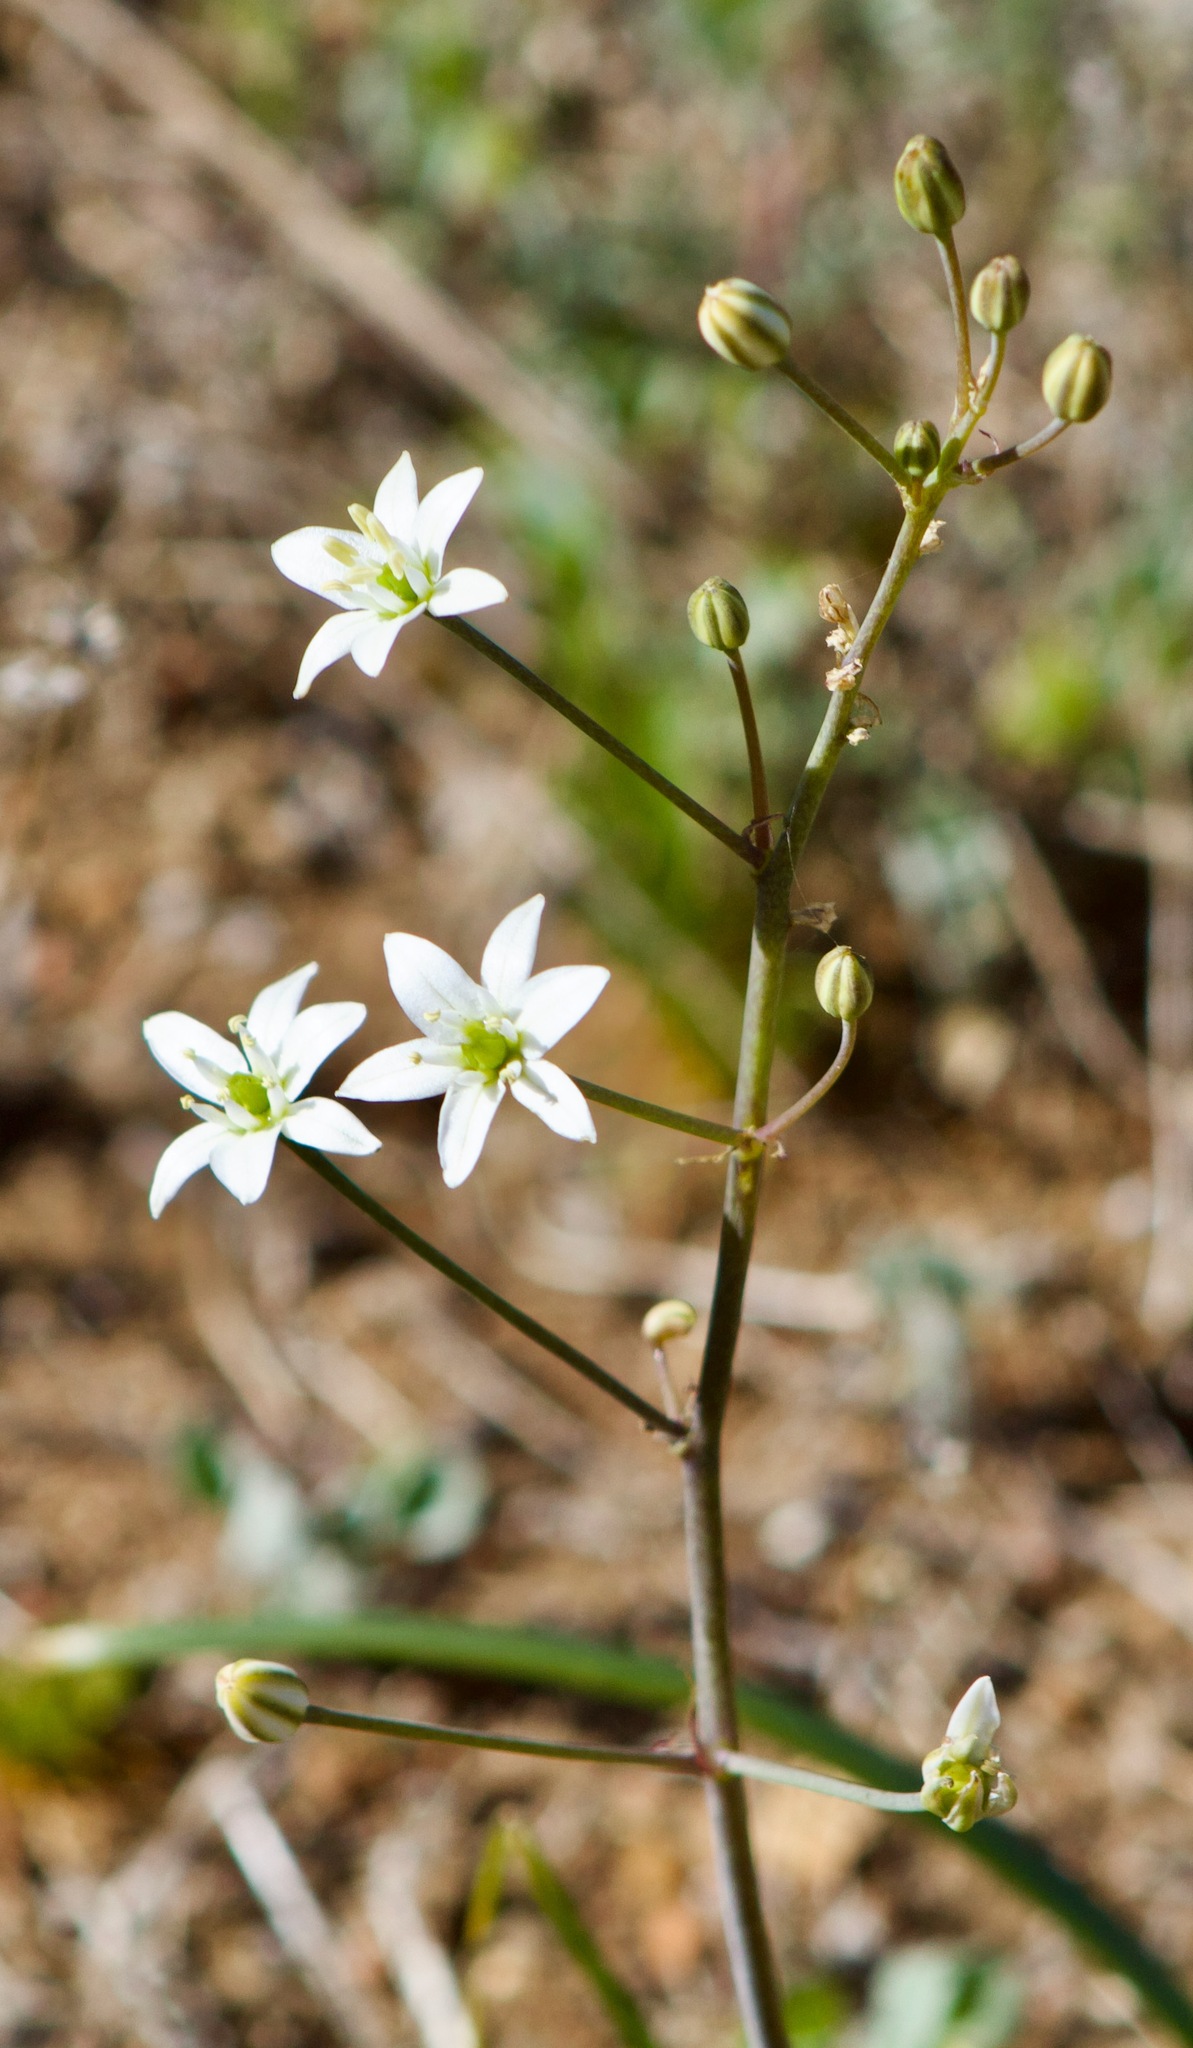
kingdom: Plantae
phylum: Tracheophyta
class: Liliopsida
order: Asparagales
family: Asparagaceae
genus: Oziroe
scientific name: Oziroe biflora
